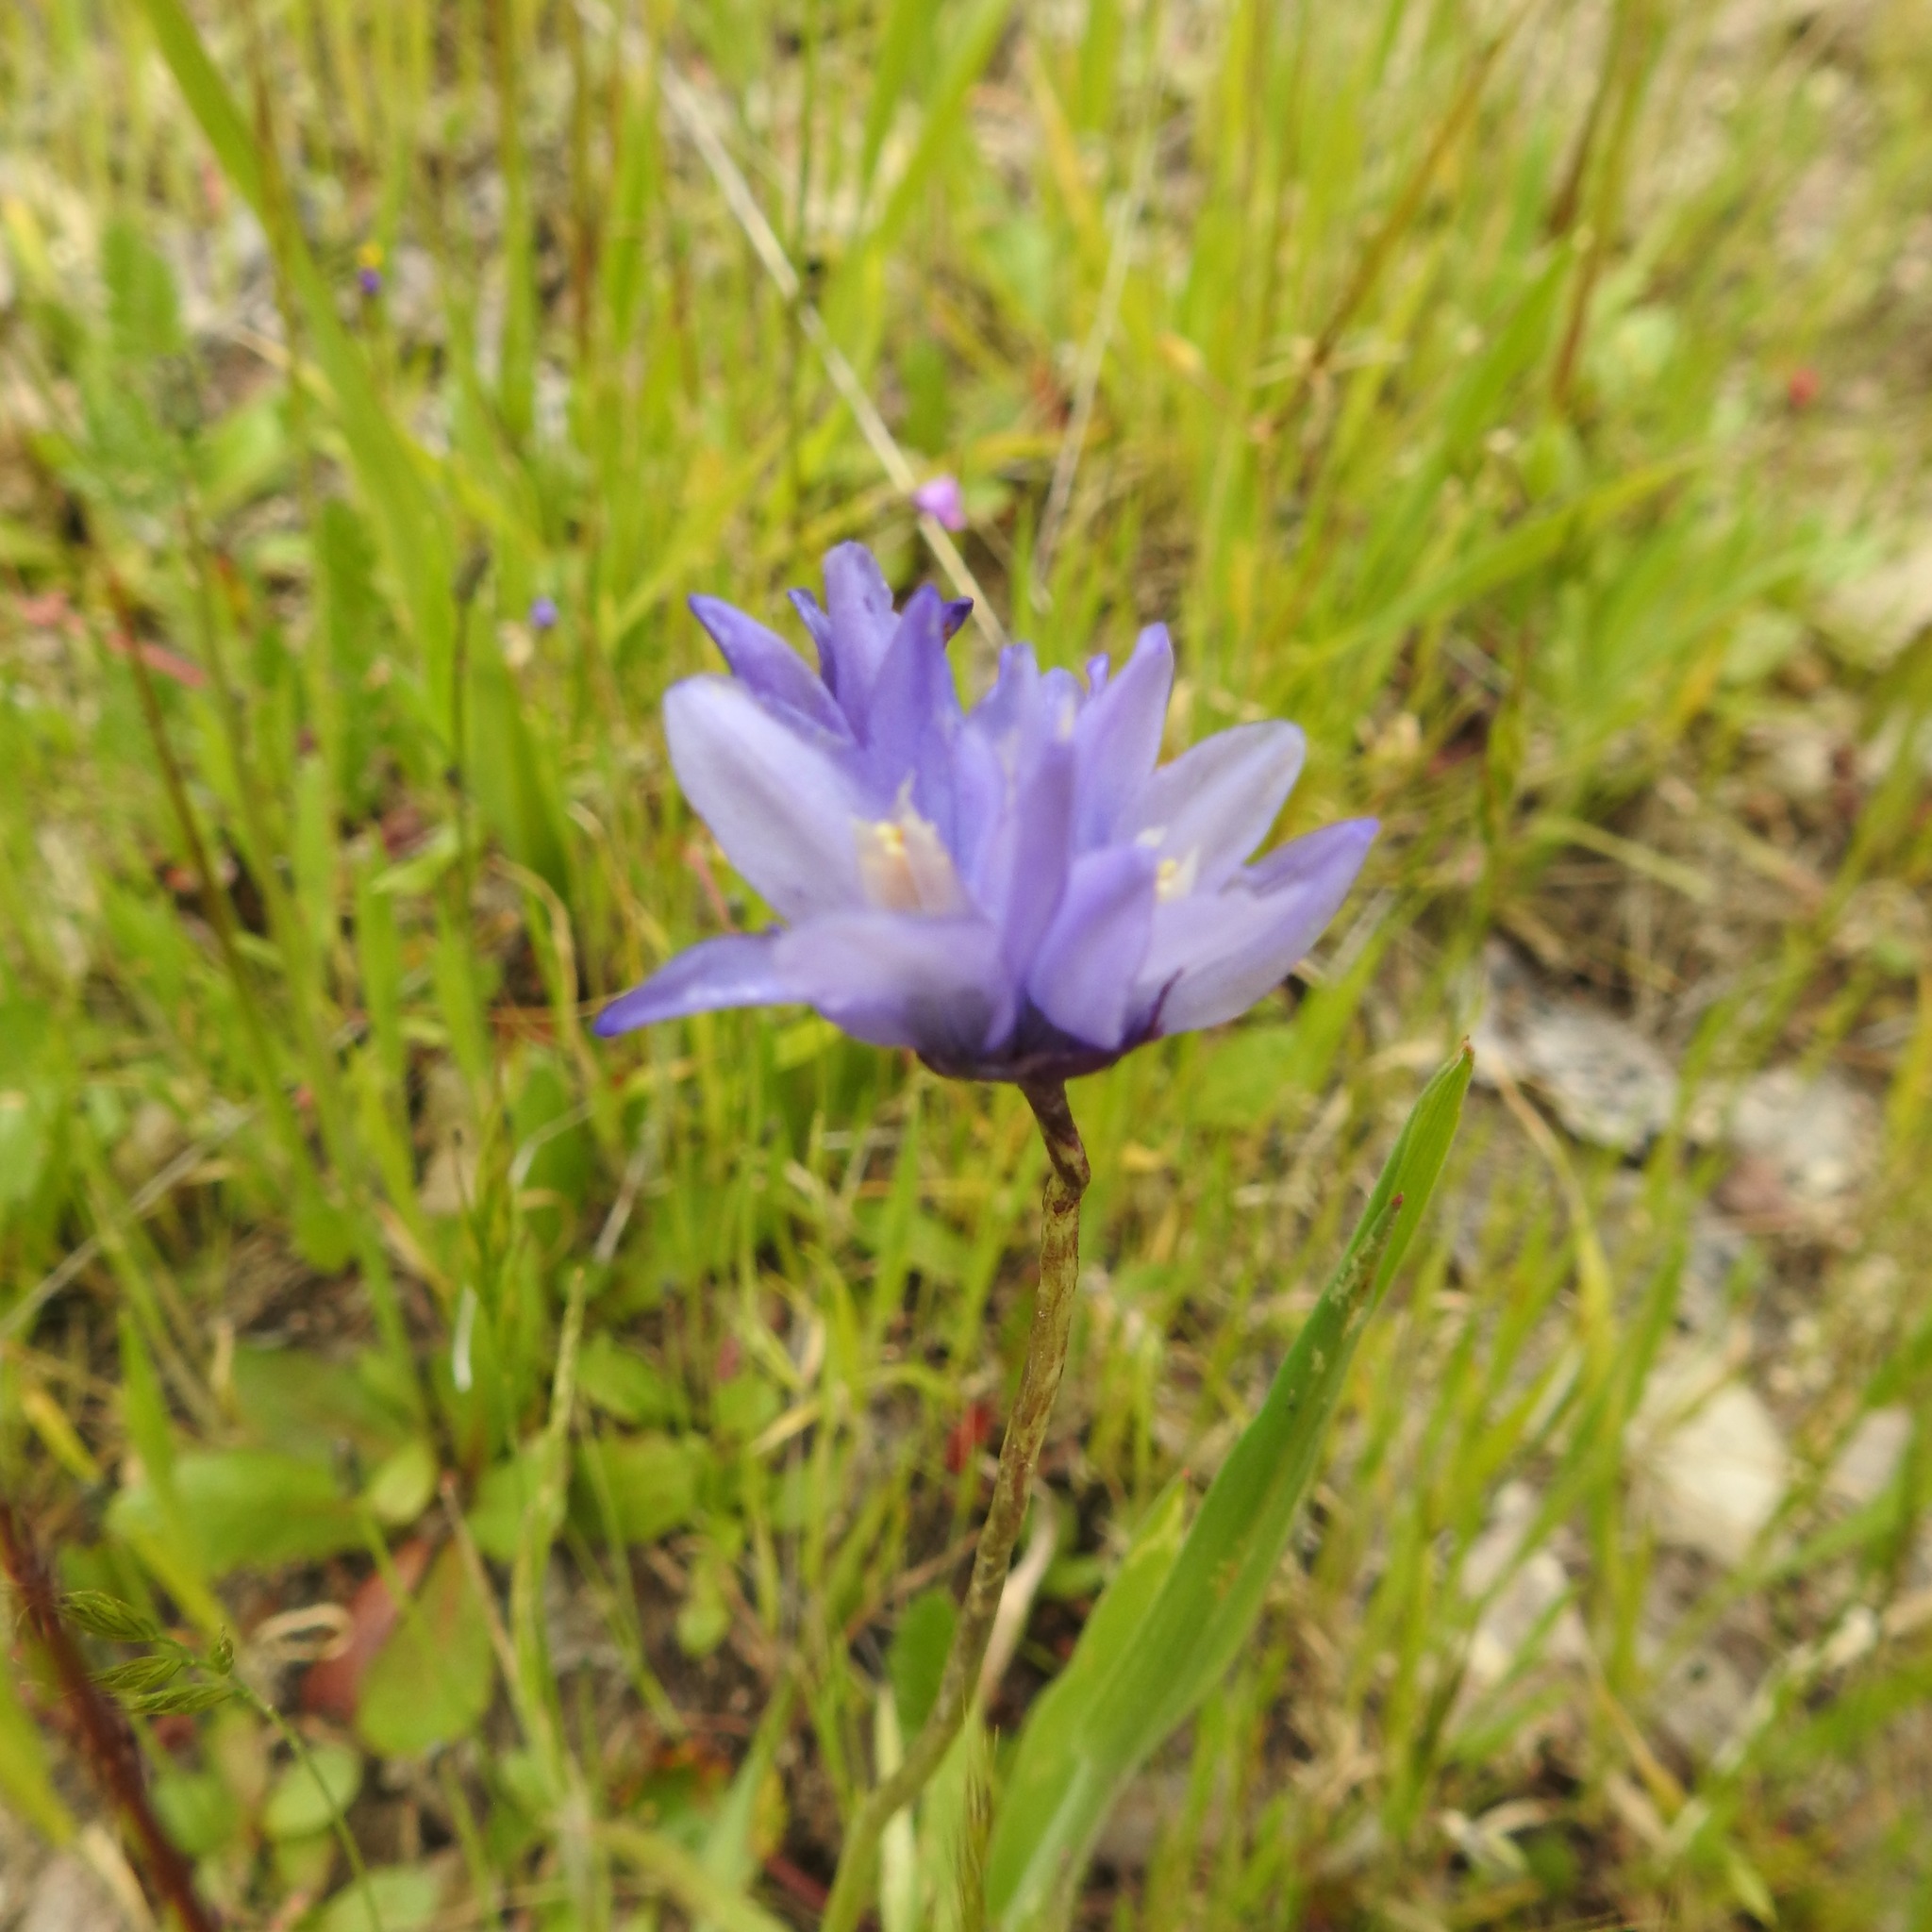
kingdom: Plantae
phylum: Tracheophyta
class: Liliopsida
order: Asparagales
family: Asparagaceae
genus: Dipterostemon
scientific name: Dipterostemon capitatus
